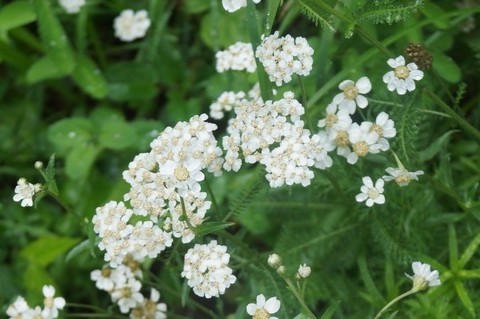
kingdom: Plantae
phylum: Tracheophyta
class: Magnoliopsida
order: Asterales
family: Asteraceae
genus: Achillea
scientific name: Achillea millefolium
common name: Yarrow
